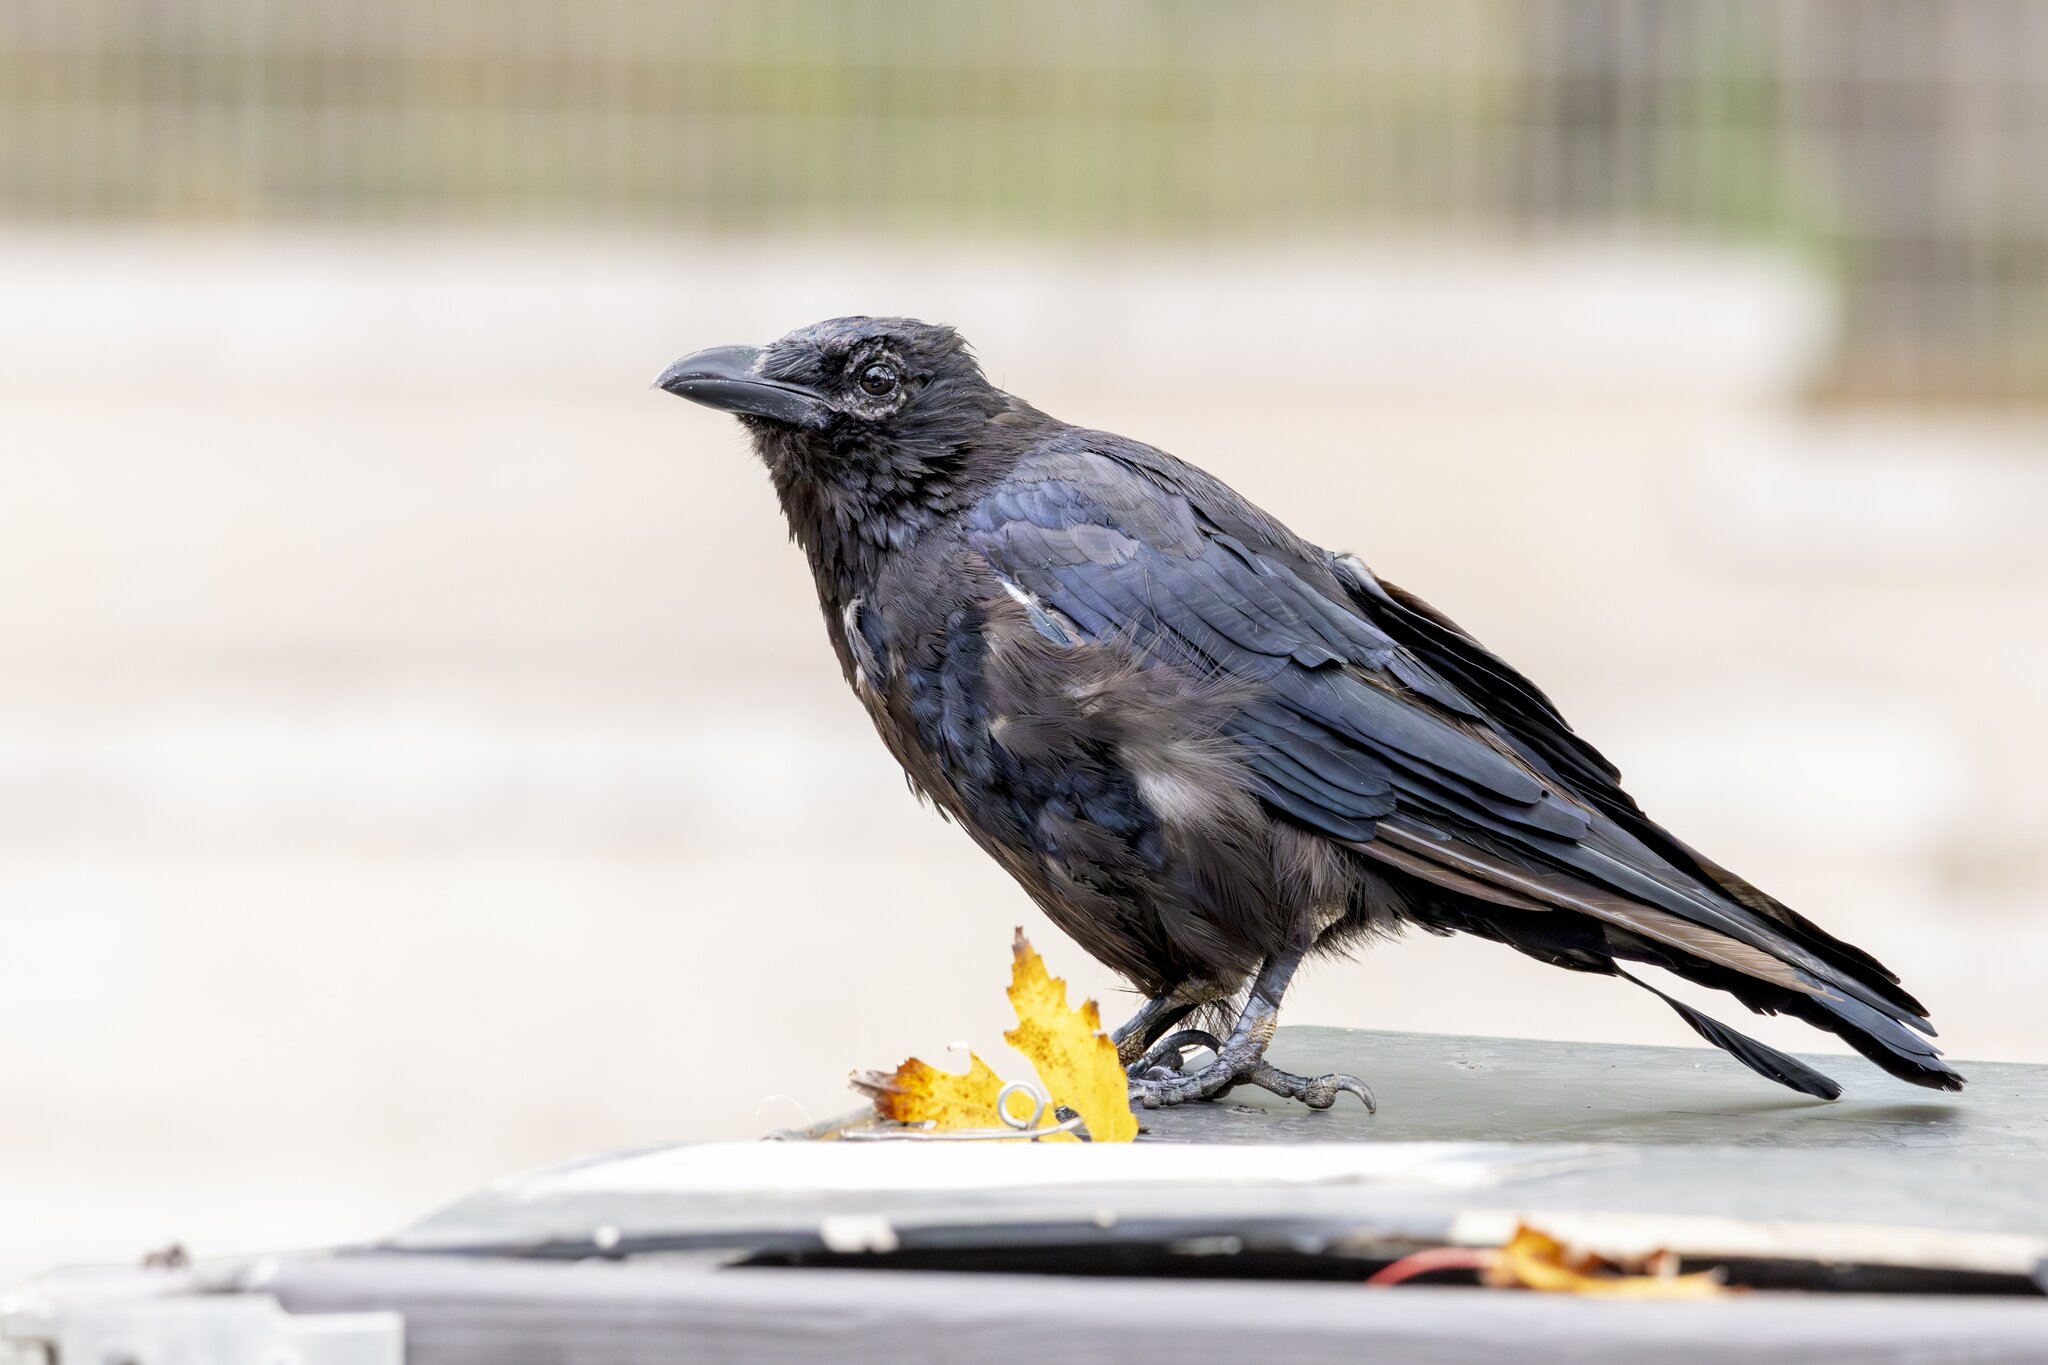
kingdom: Animalia
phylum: Chordata
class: Aves
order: Passeriformes
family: Corvidae
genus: Corvus
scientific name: Corvus corone
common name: Carrion crow
